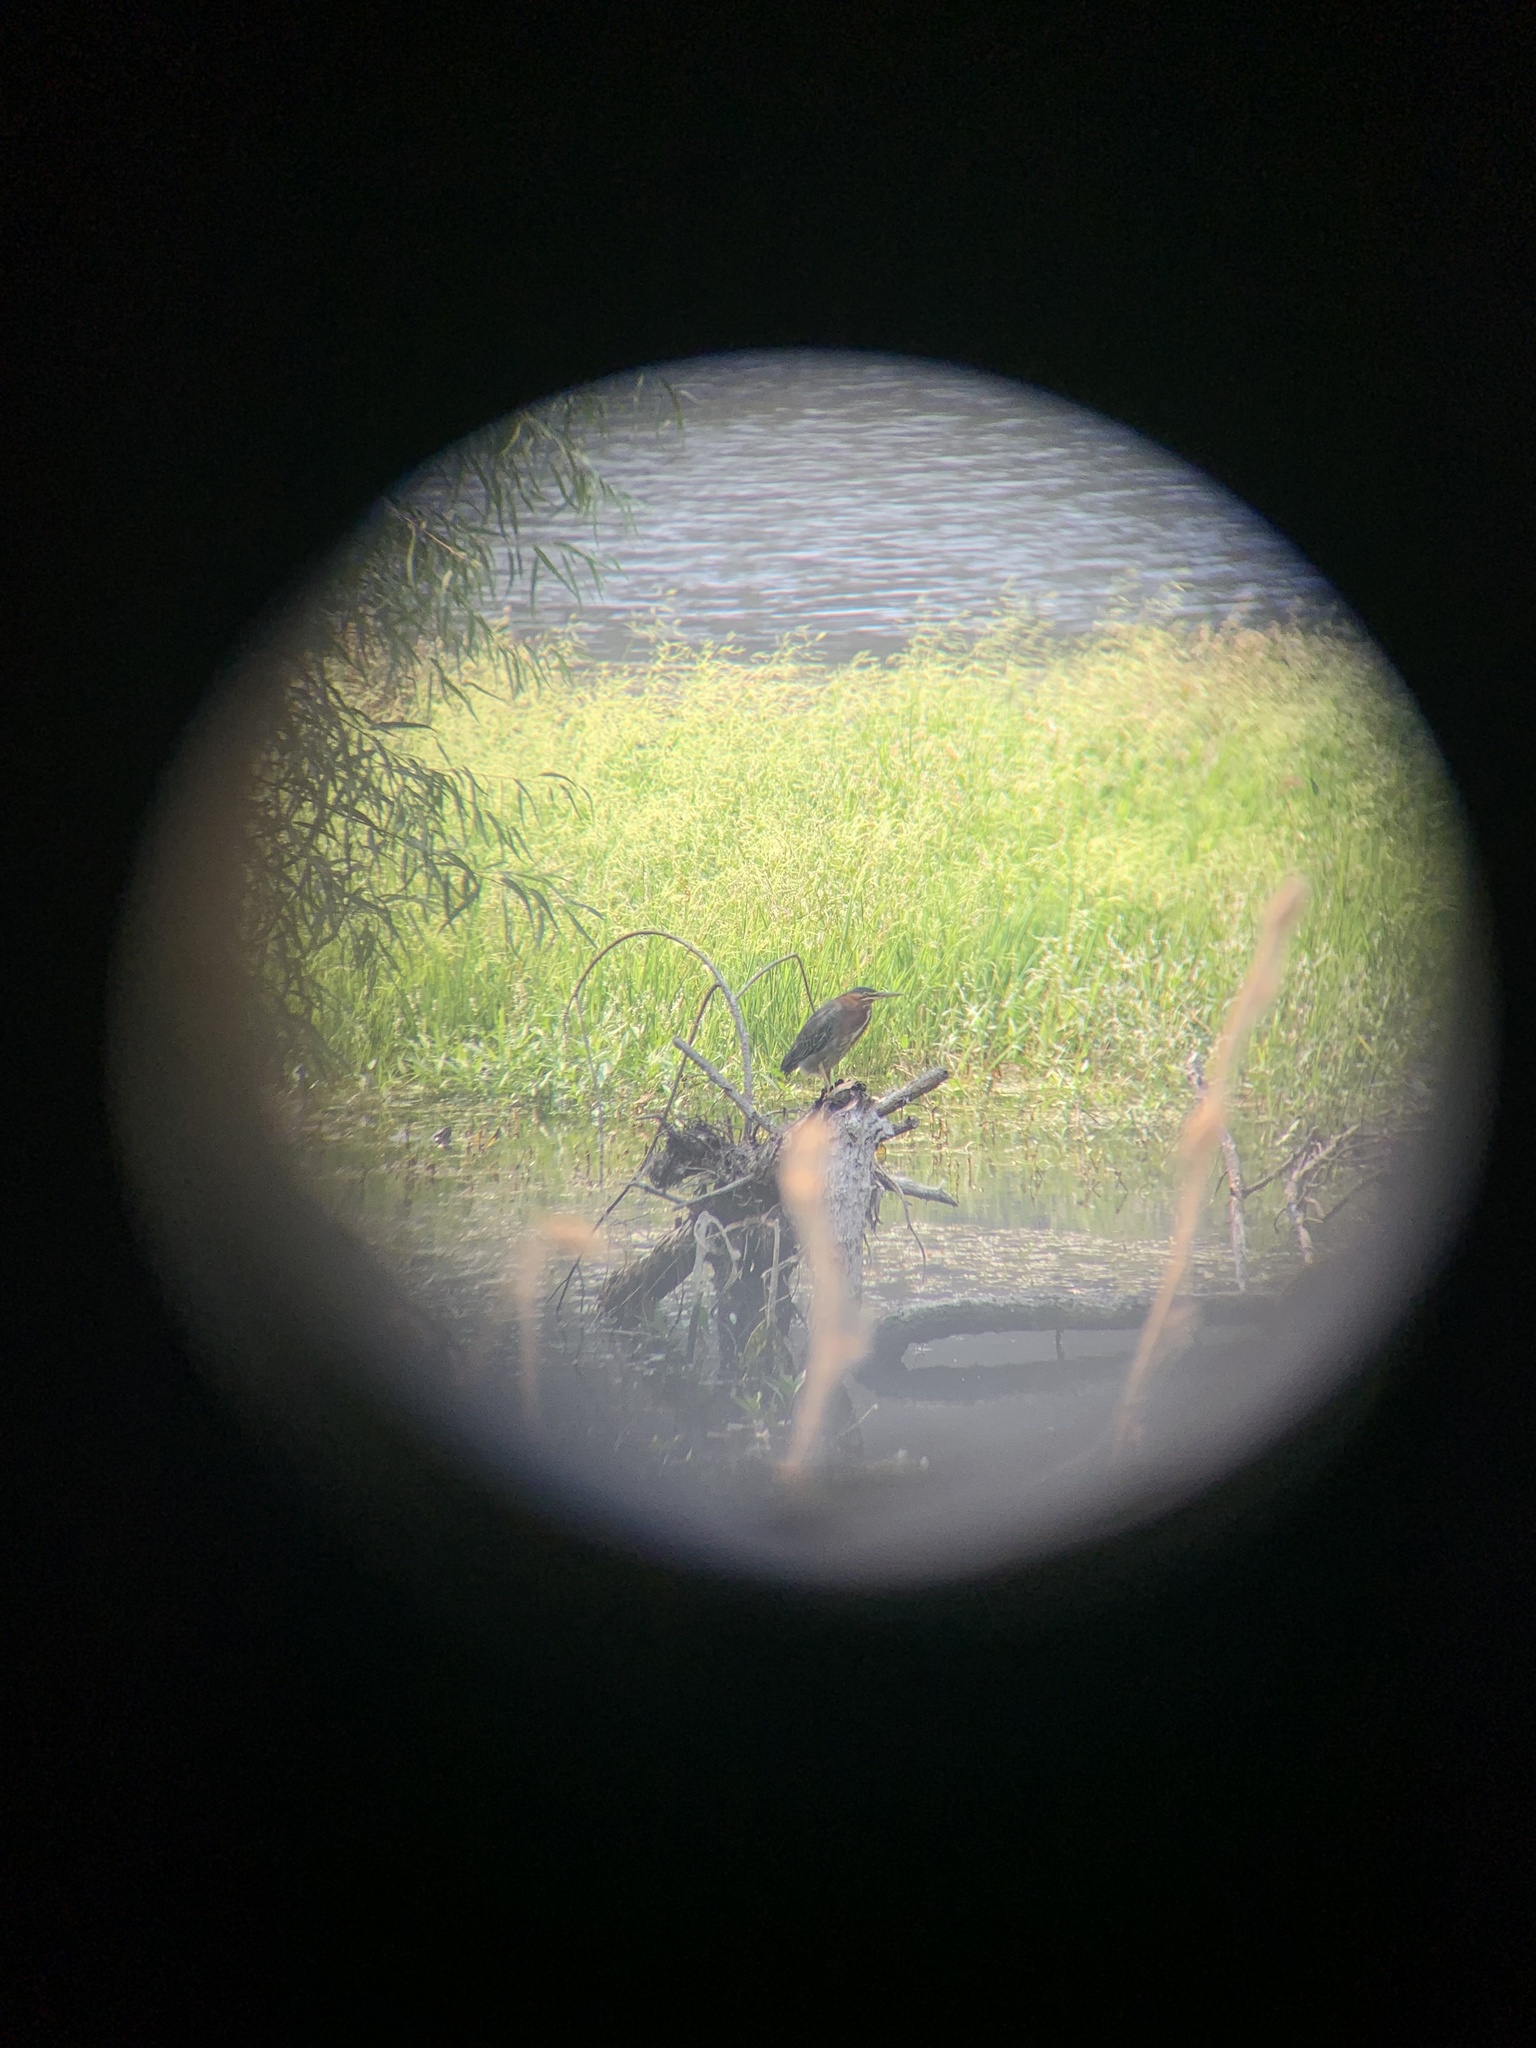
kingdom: Animalia
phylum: Chordata
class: Aves
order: Pelecaniformes
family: Ardeidae
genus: Butorides
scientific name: Butorides virescens
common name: Green heron
